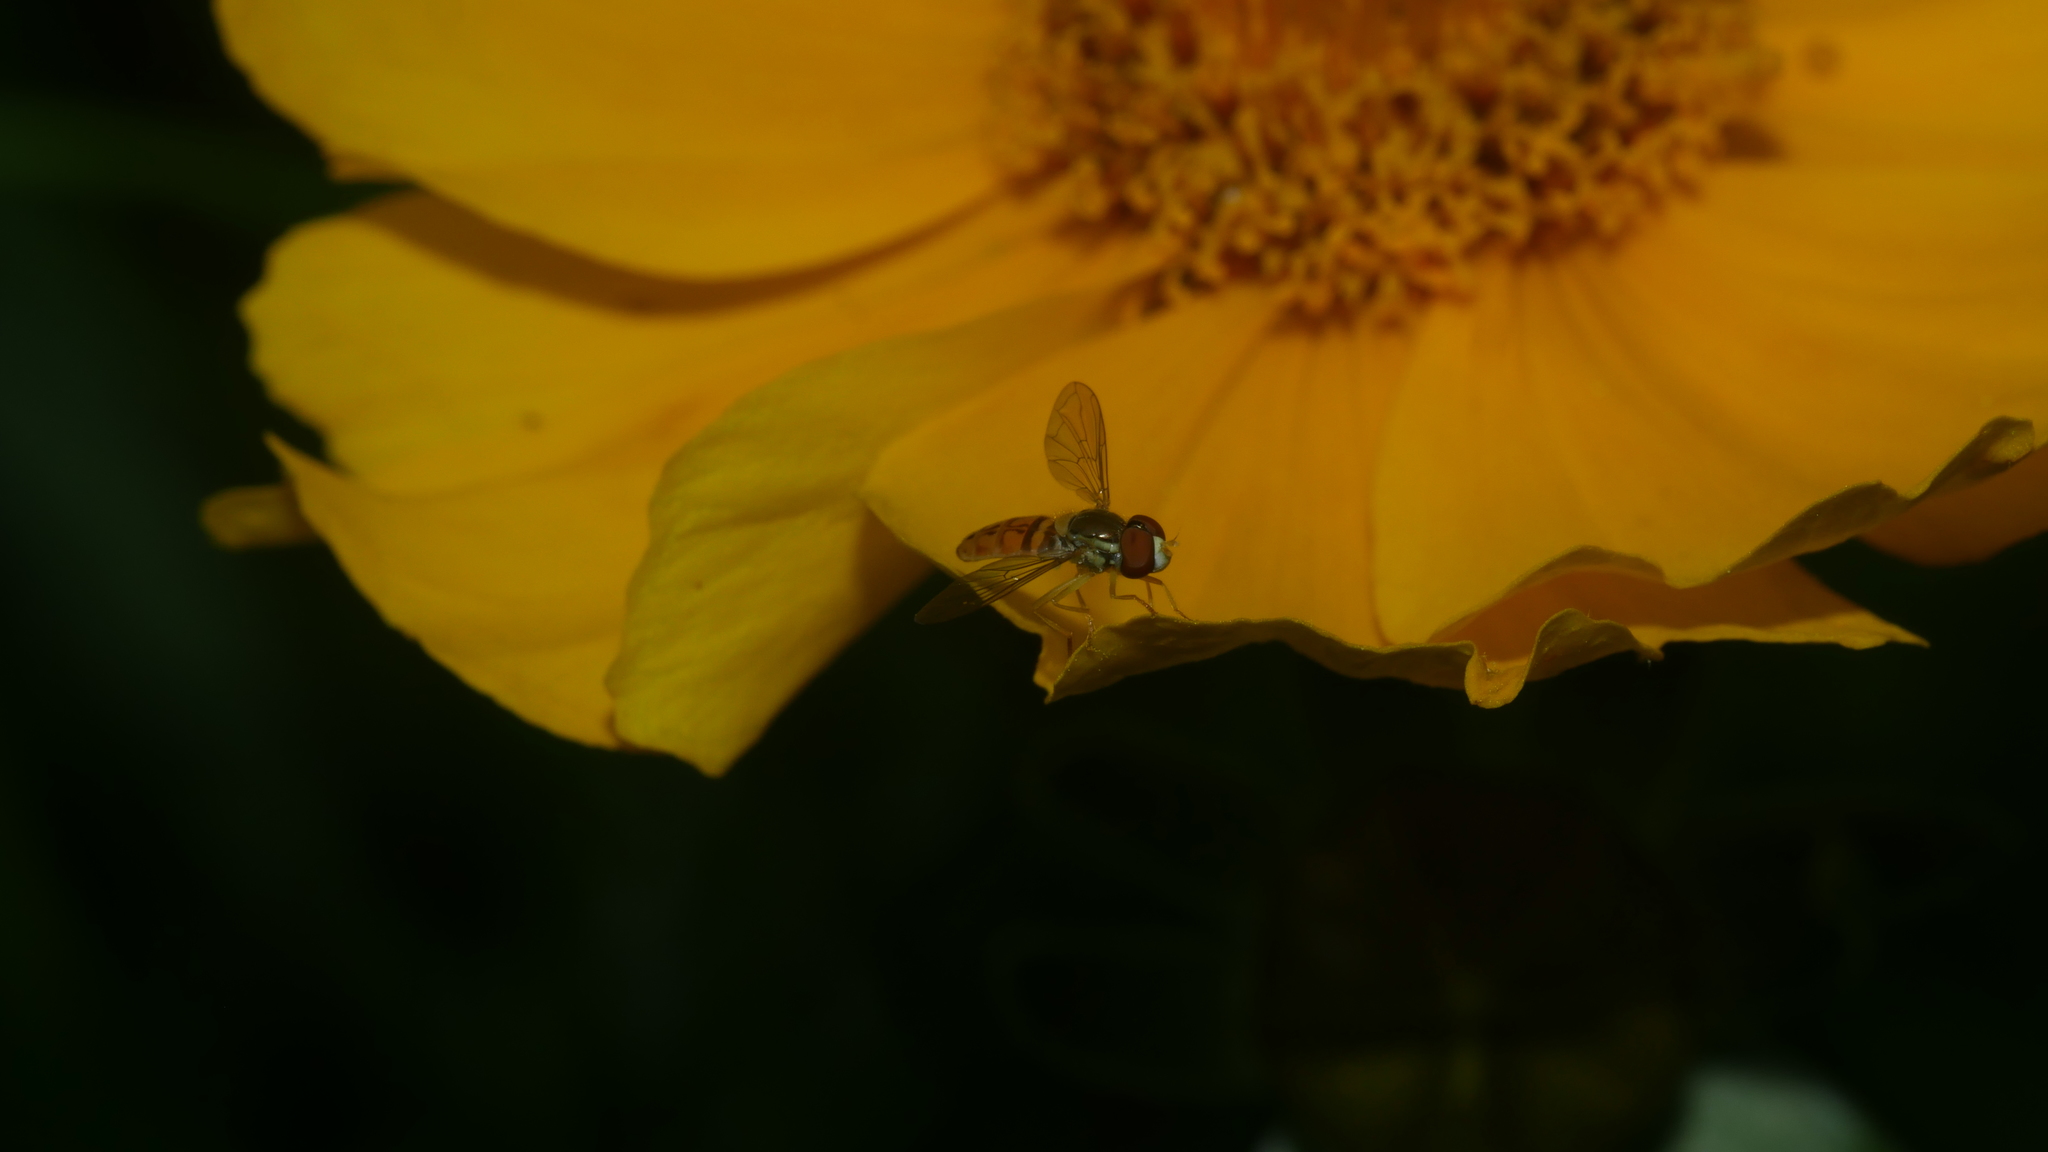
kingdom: Animalia
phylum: Arthropoda
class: Insecta
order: Diptera
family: Syrphidae
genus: Toxomerus
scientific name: Toxomerus marginatus
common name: Syrphid fly
